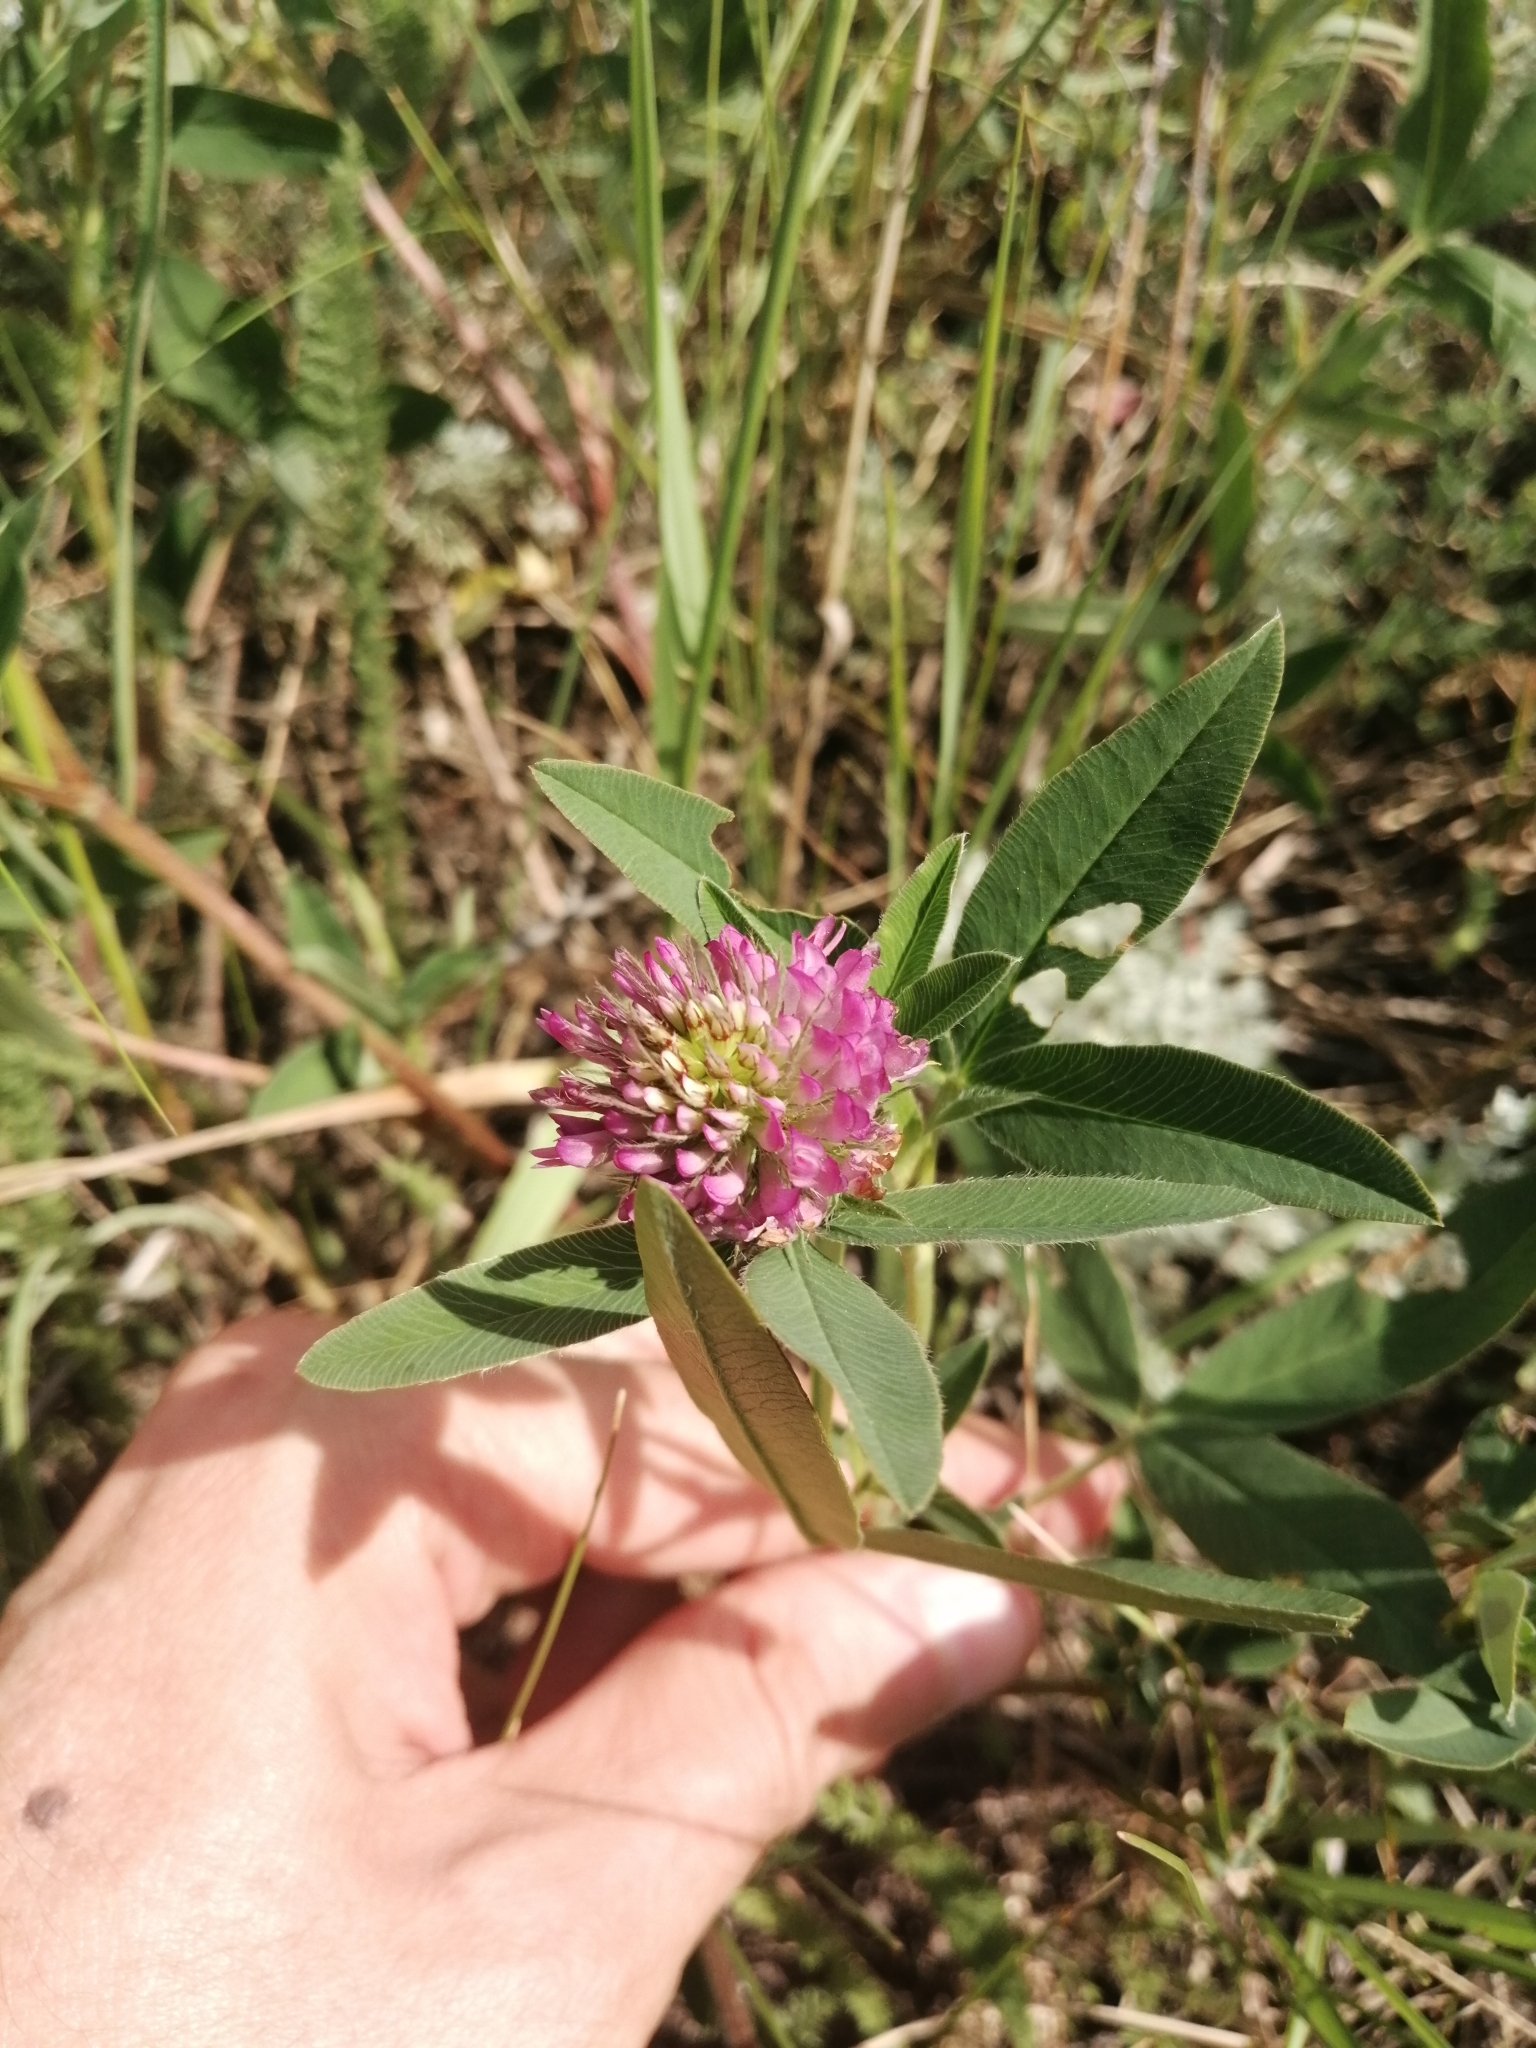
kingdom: Plantae
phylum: Tracheophyta
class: Magnoliopsida
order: Fabales
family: Fabaceae
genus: Trifolium
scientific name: Trifolium medium
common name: Zigzag clover
